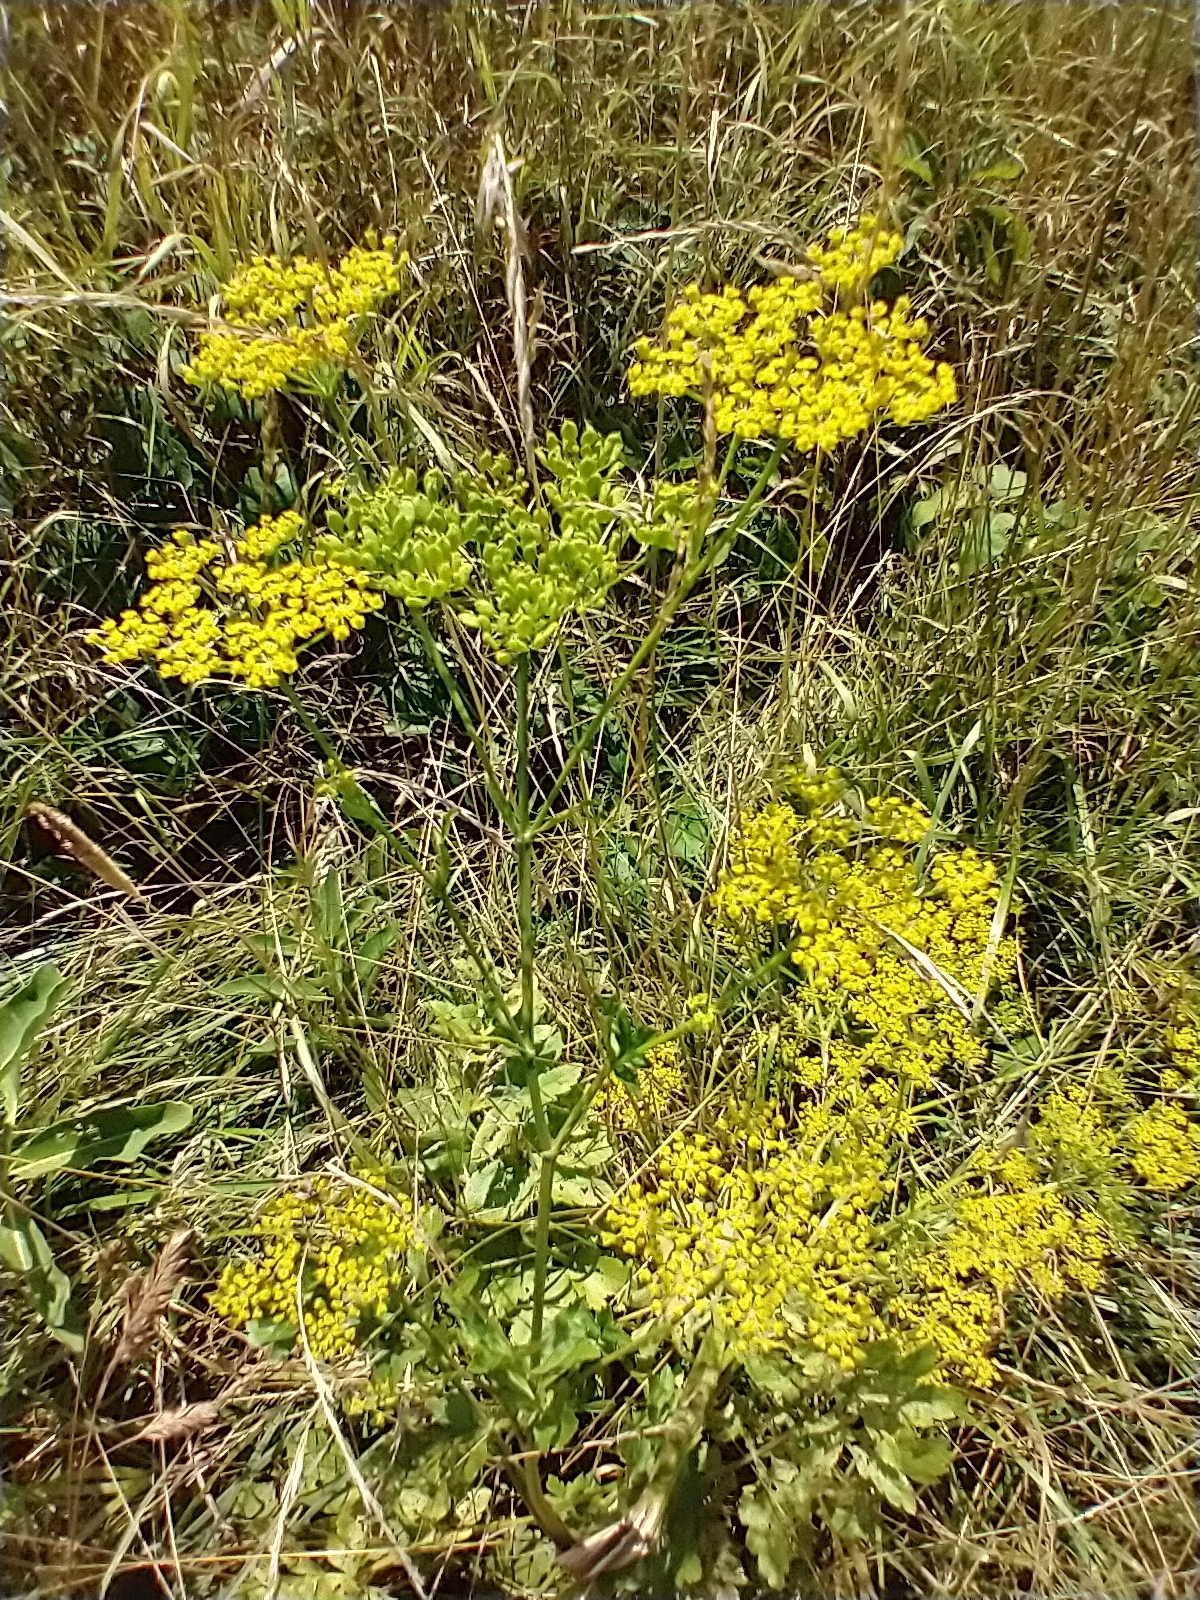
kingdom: Plantae
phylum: Tracheophyta
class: Magnoliopsida
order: Apiales
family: Apiaceae
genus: Pastinaca
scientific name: Pastinaca sativa
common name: Wild parsnip
